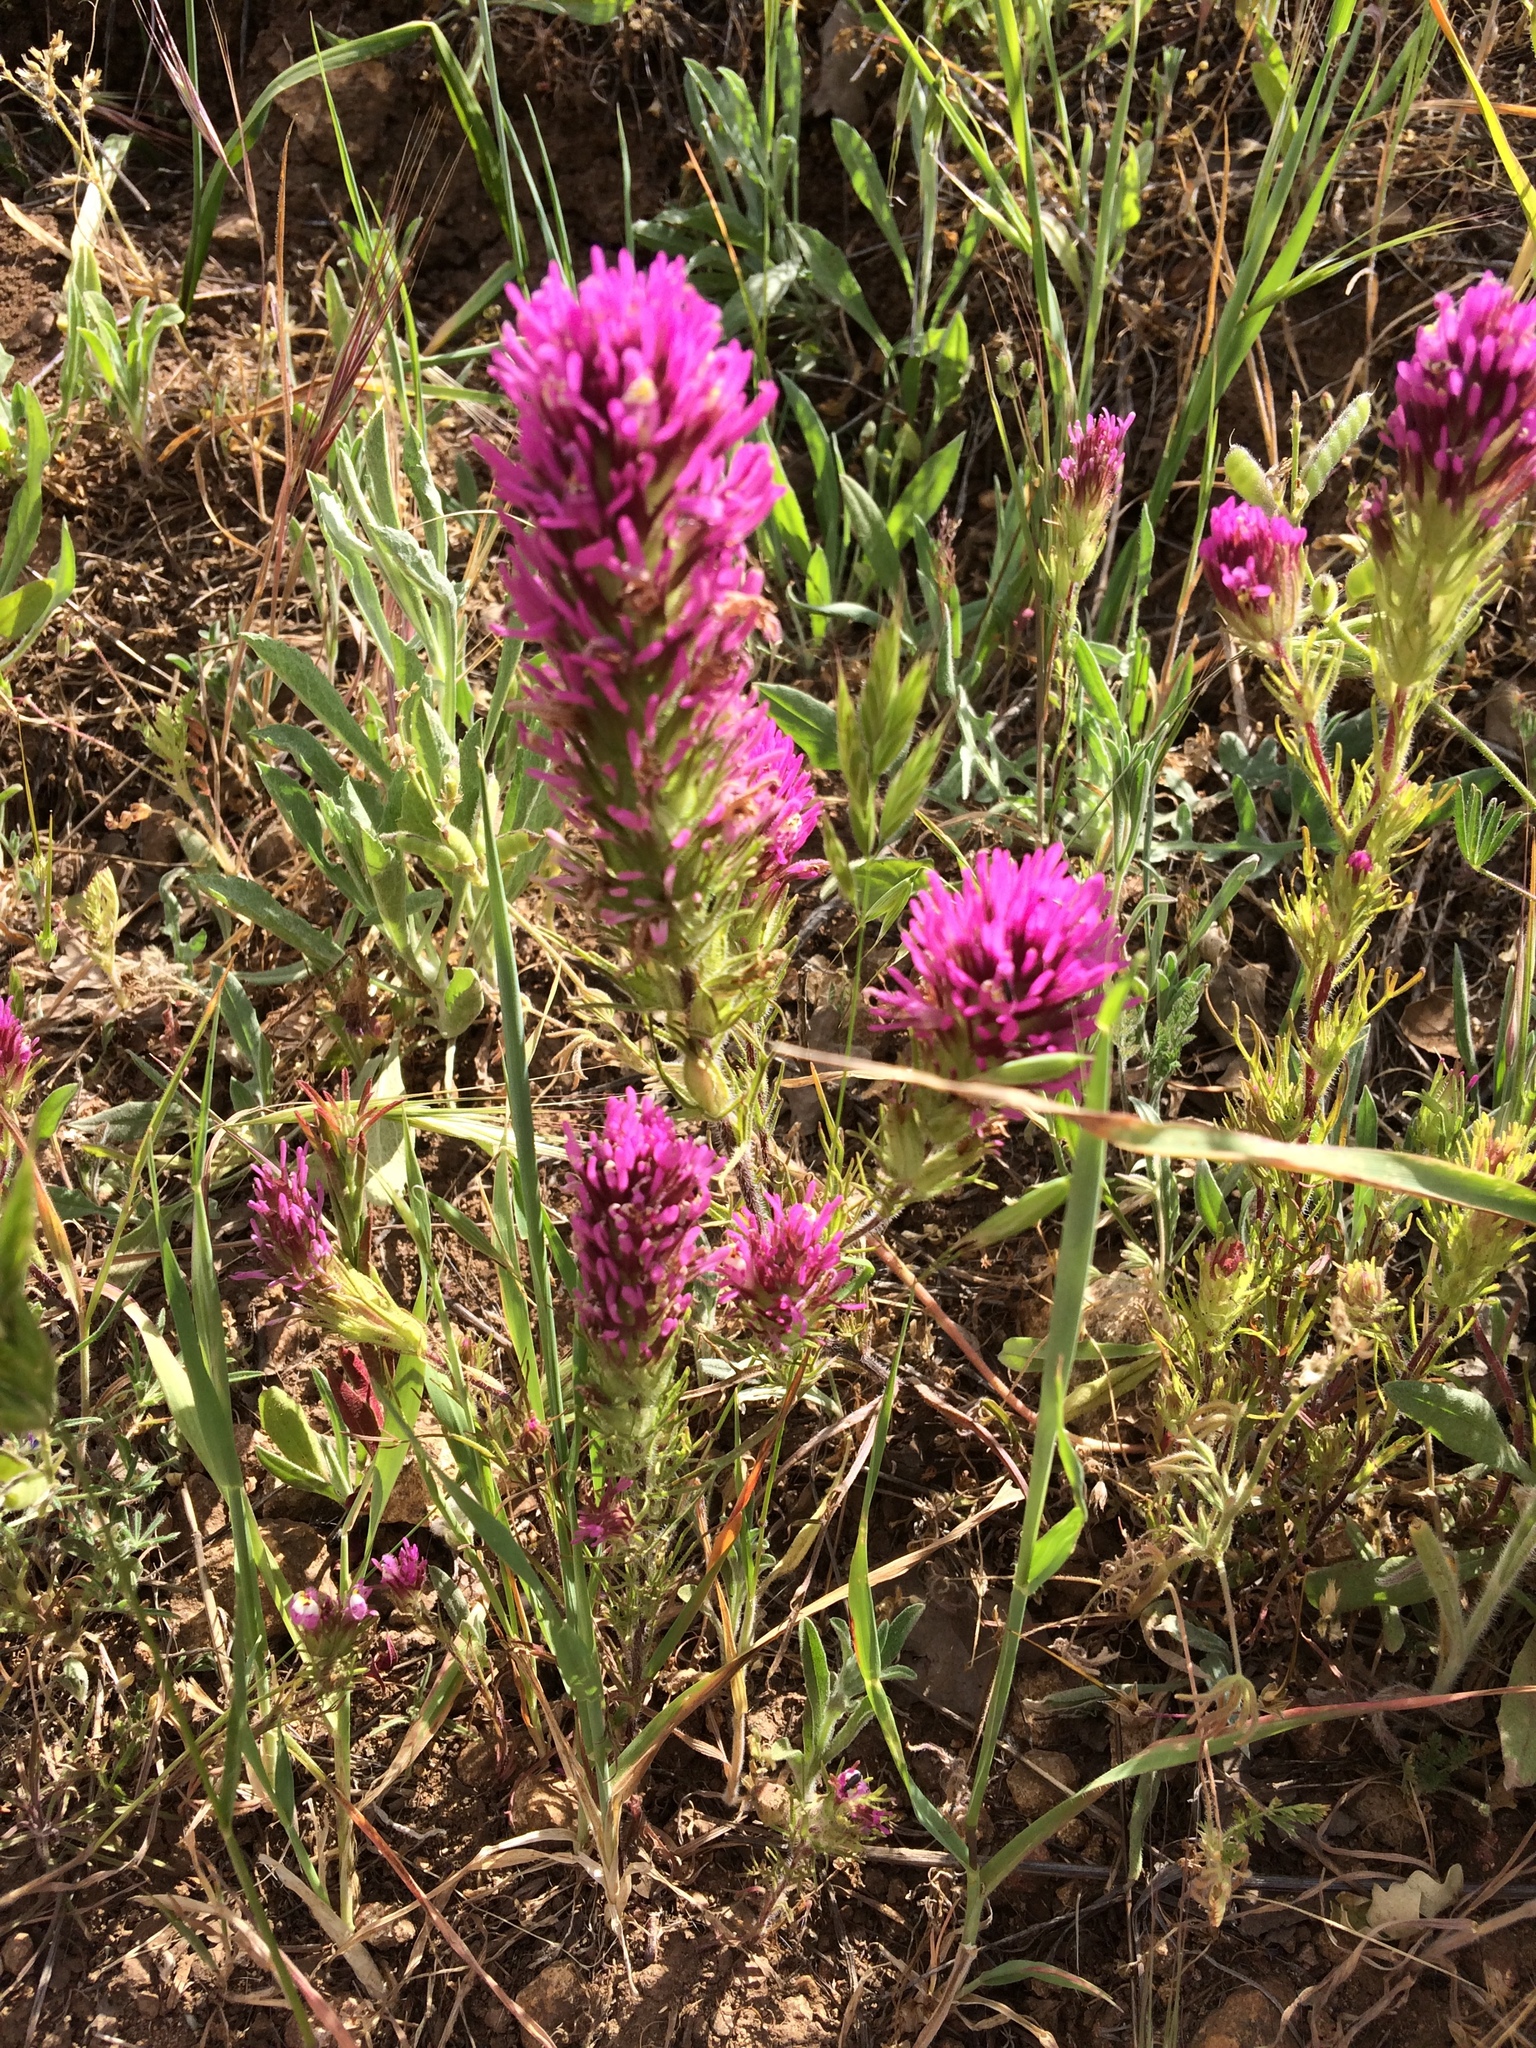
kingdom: Plantae
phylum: Tracheophyta
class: Magnoliopsida
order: Lamiales
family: Orobanchaceae
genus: Castilleja
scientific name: Castilleja exserta
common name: Purple owl-clover
